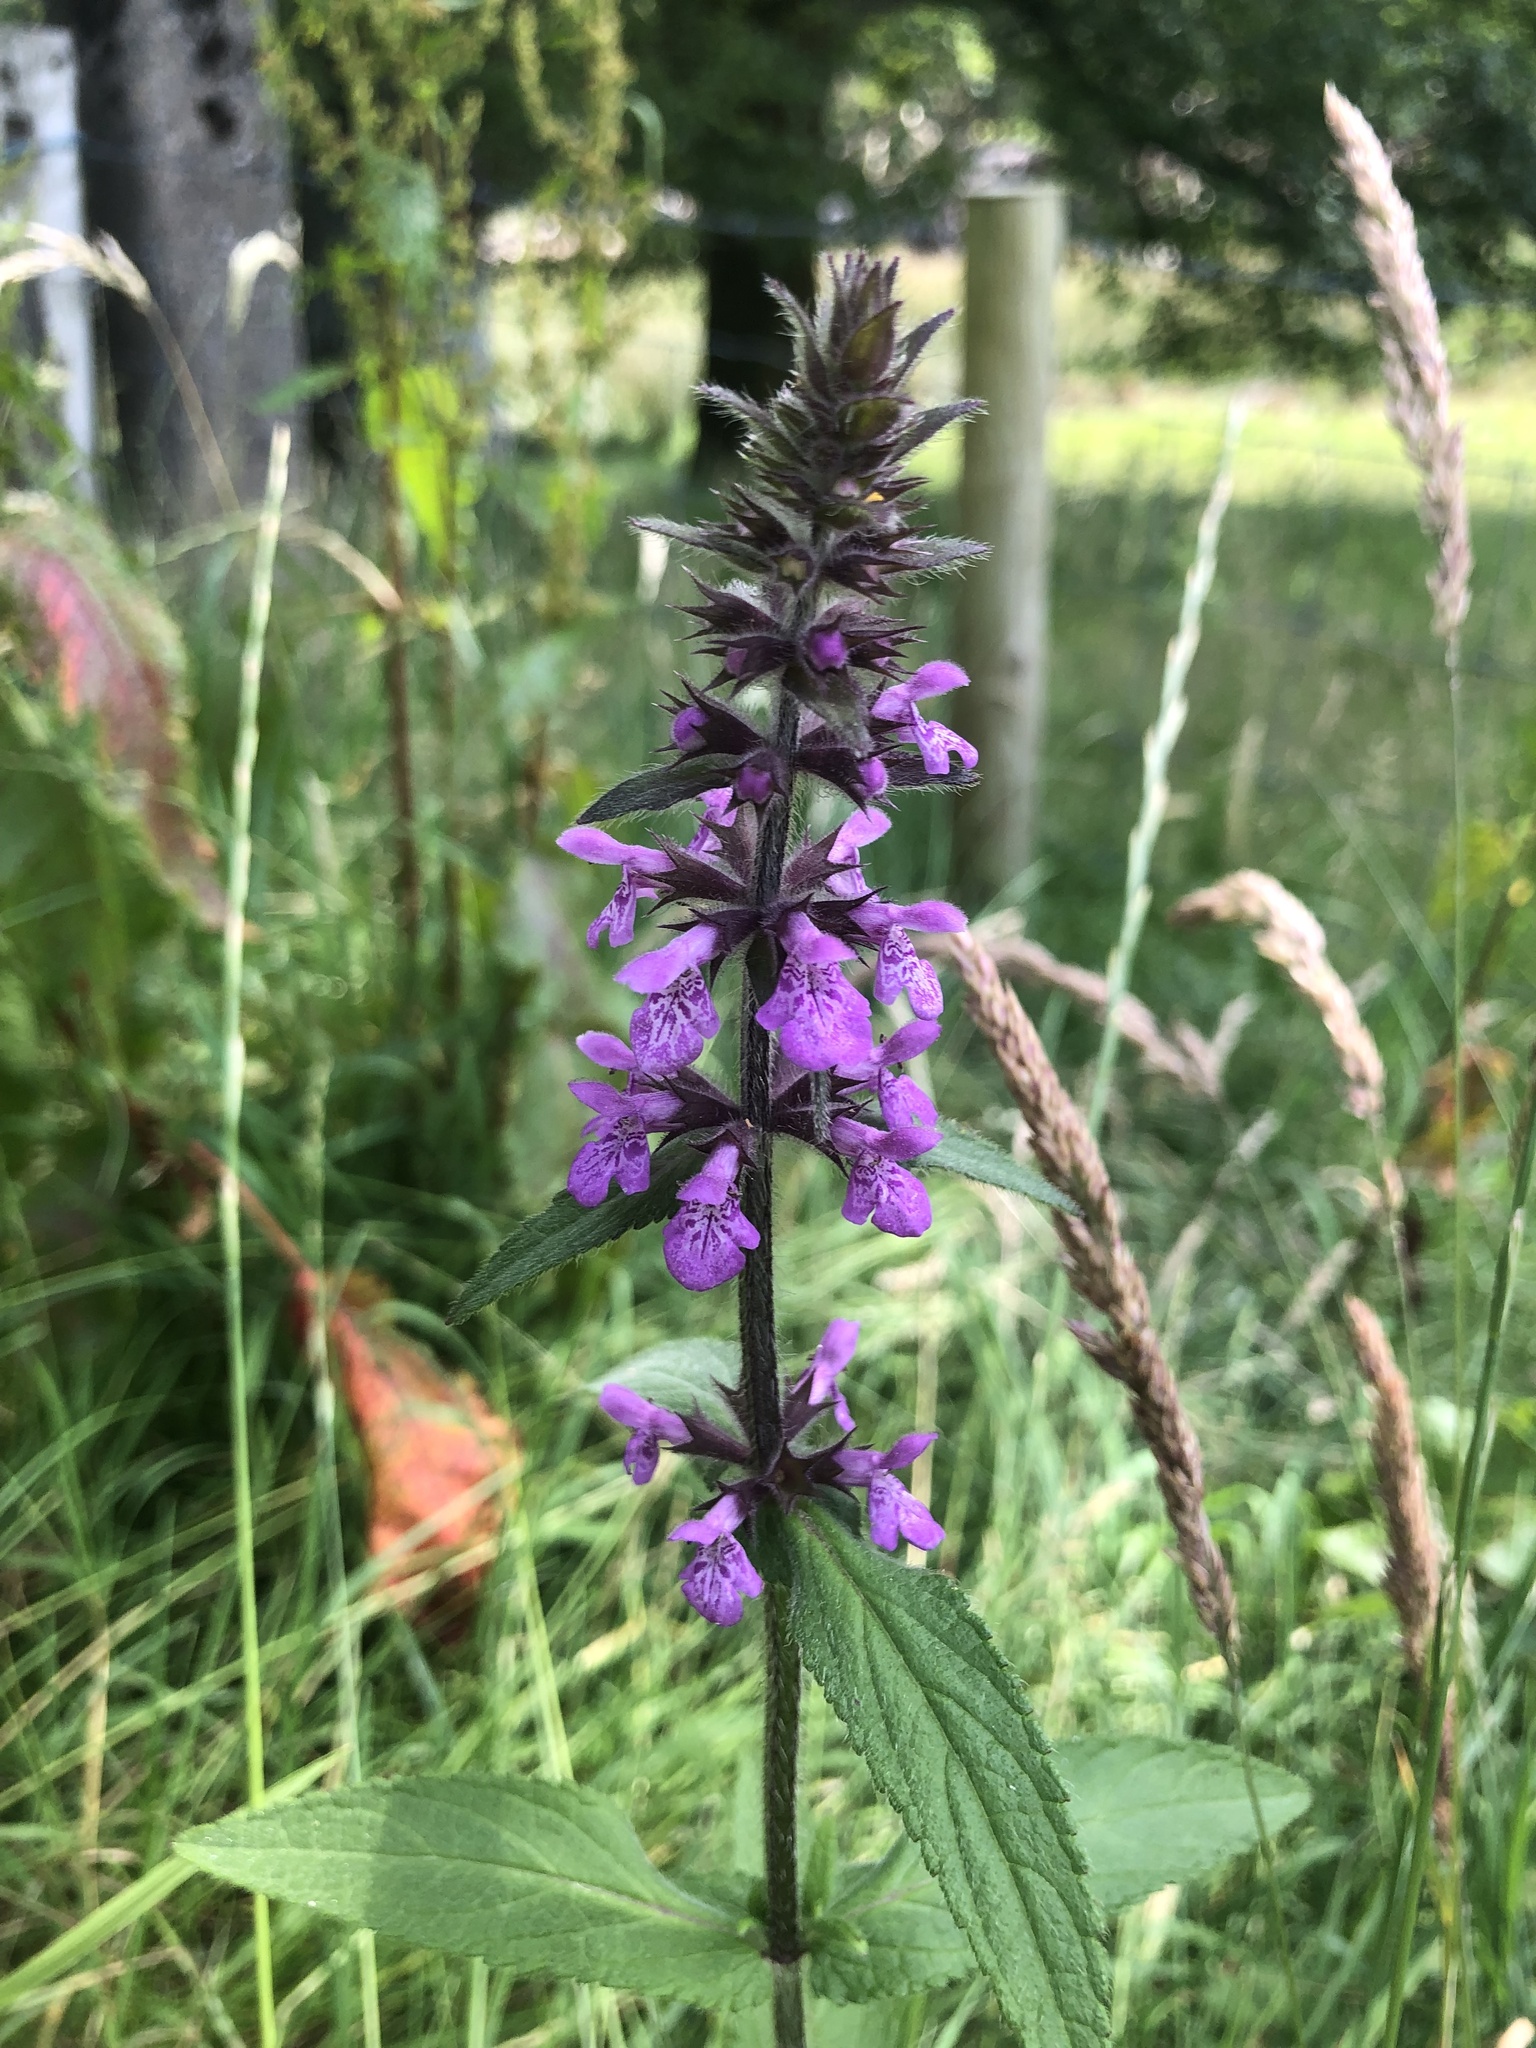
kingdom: Plantae
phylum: Tracheophyta
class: Magnoliopsida
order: Lamiales
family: Lamiaceae
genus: Stachys
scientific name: Stachys palustris
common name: Marsh woundwort
